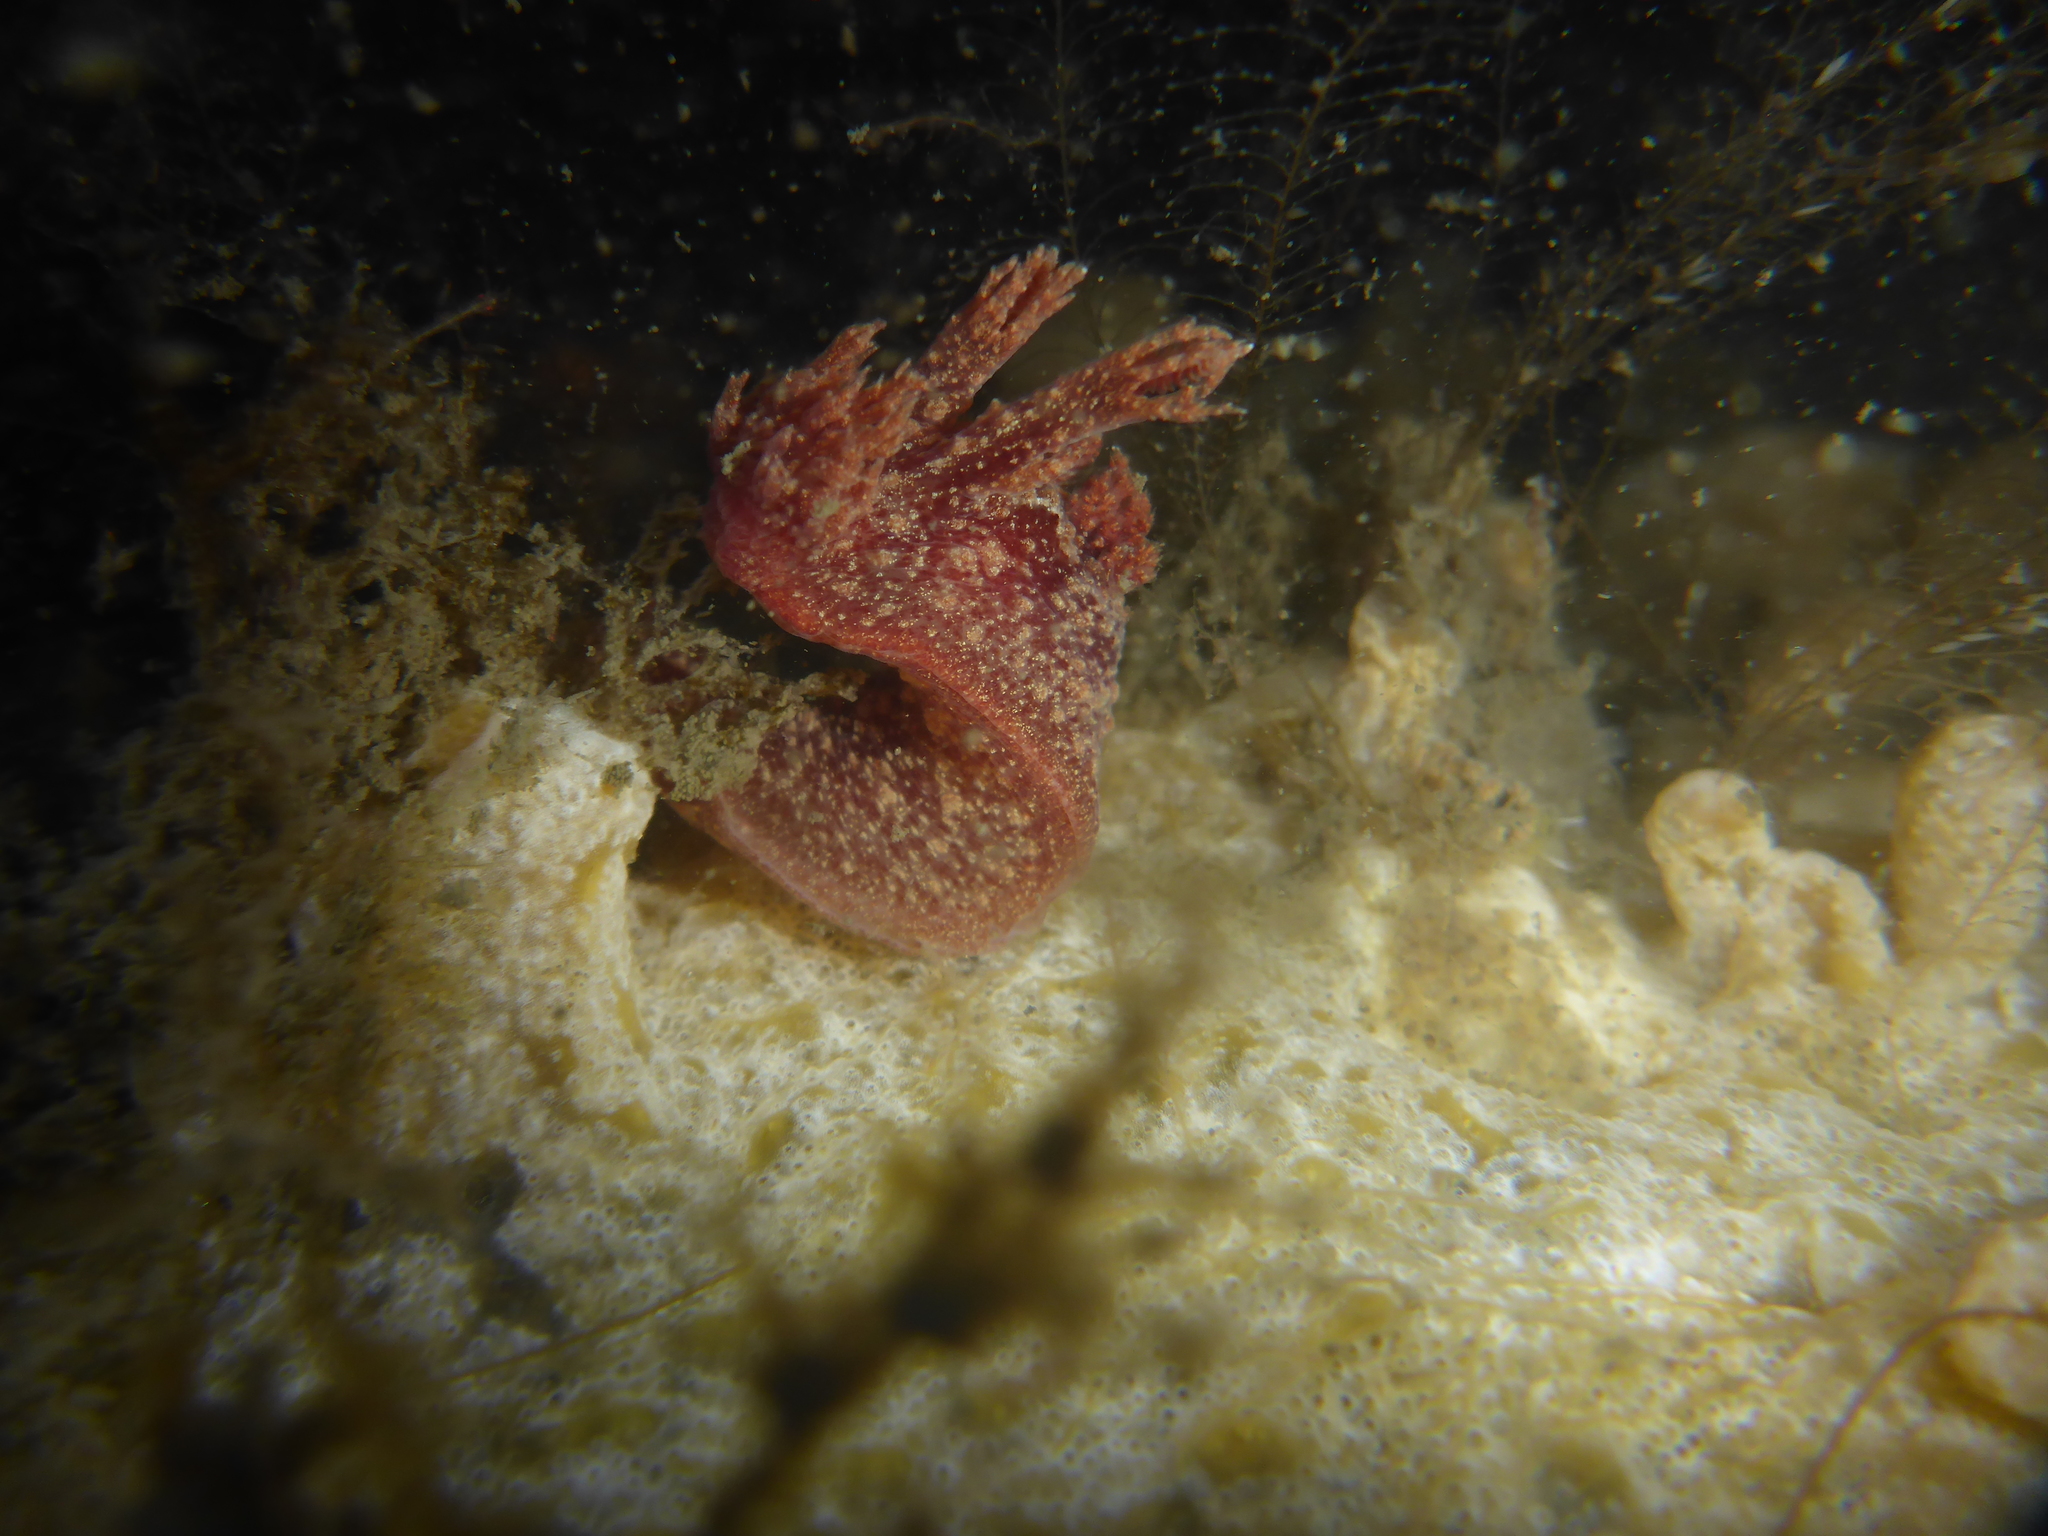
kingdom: Animalia
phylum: Mollusca
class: Gastropoda
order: Nudibranchia
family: Dendronotidae
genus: Dendronotus
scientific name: Dendronotus venustus
